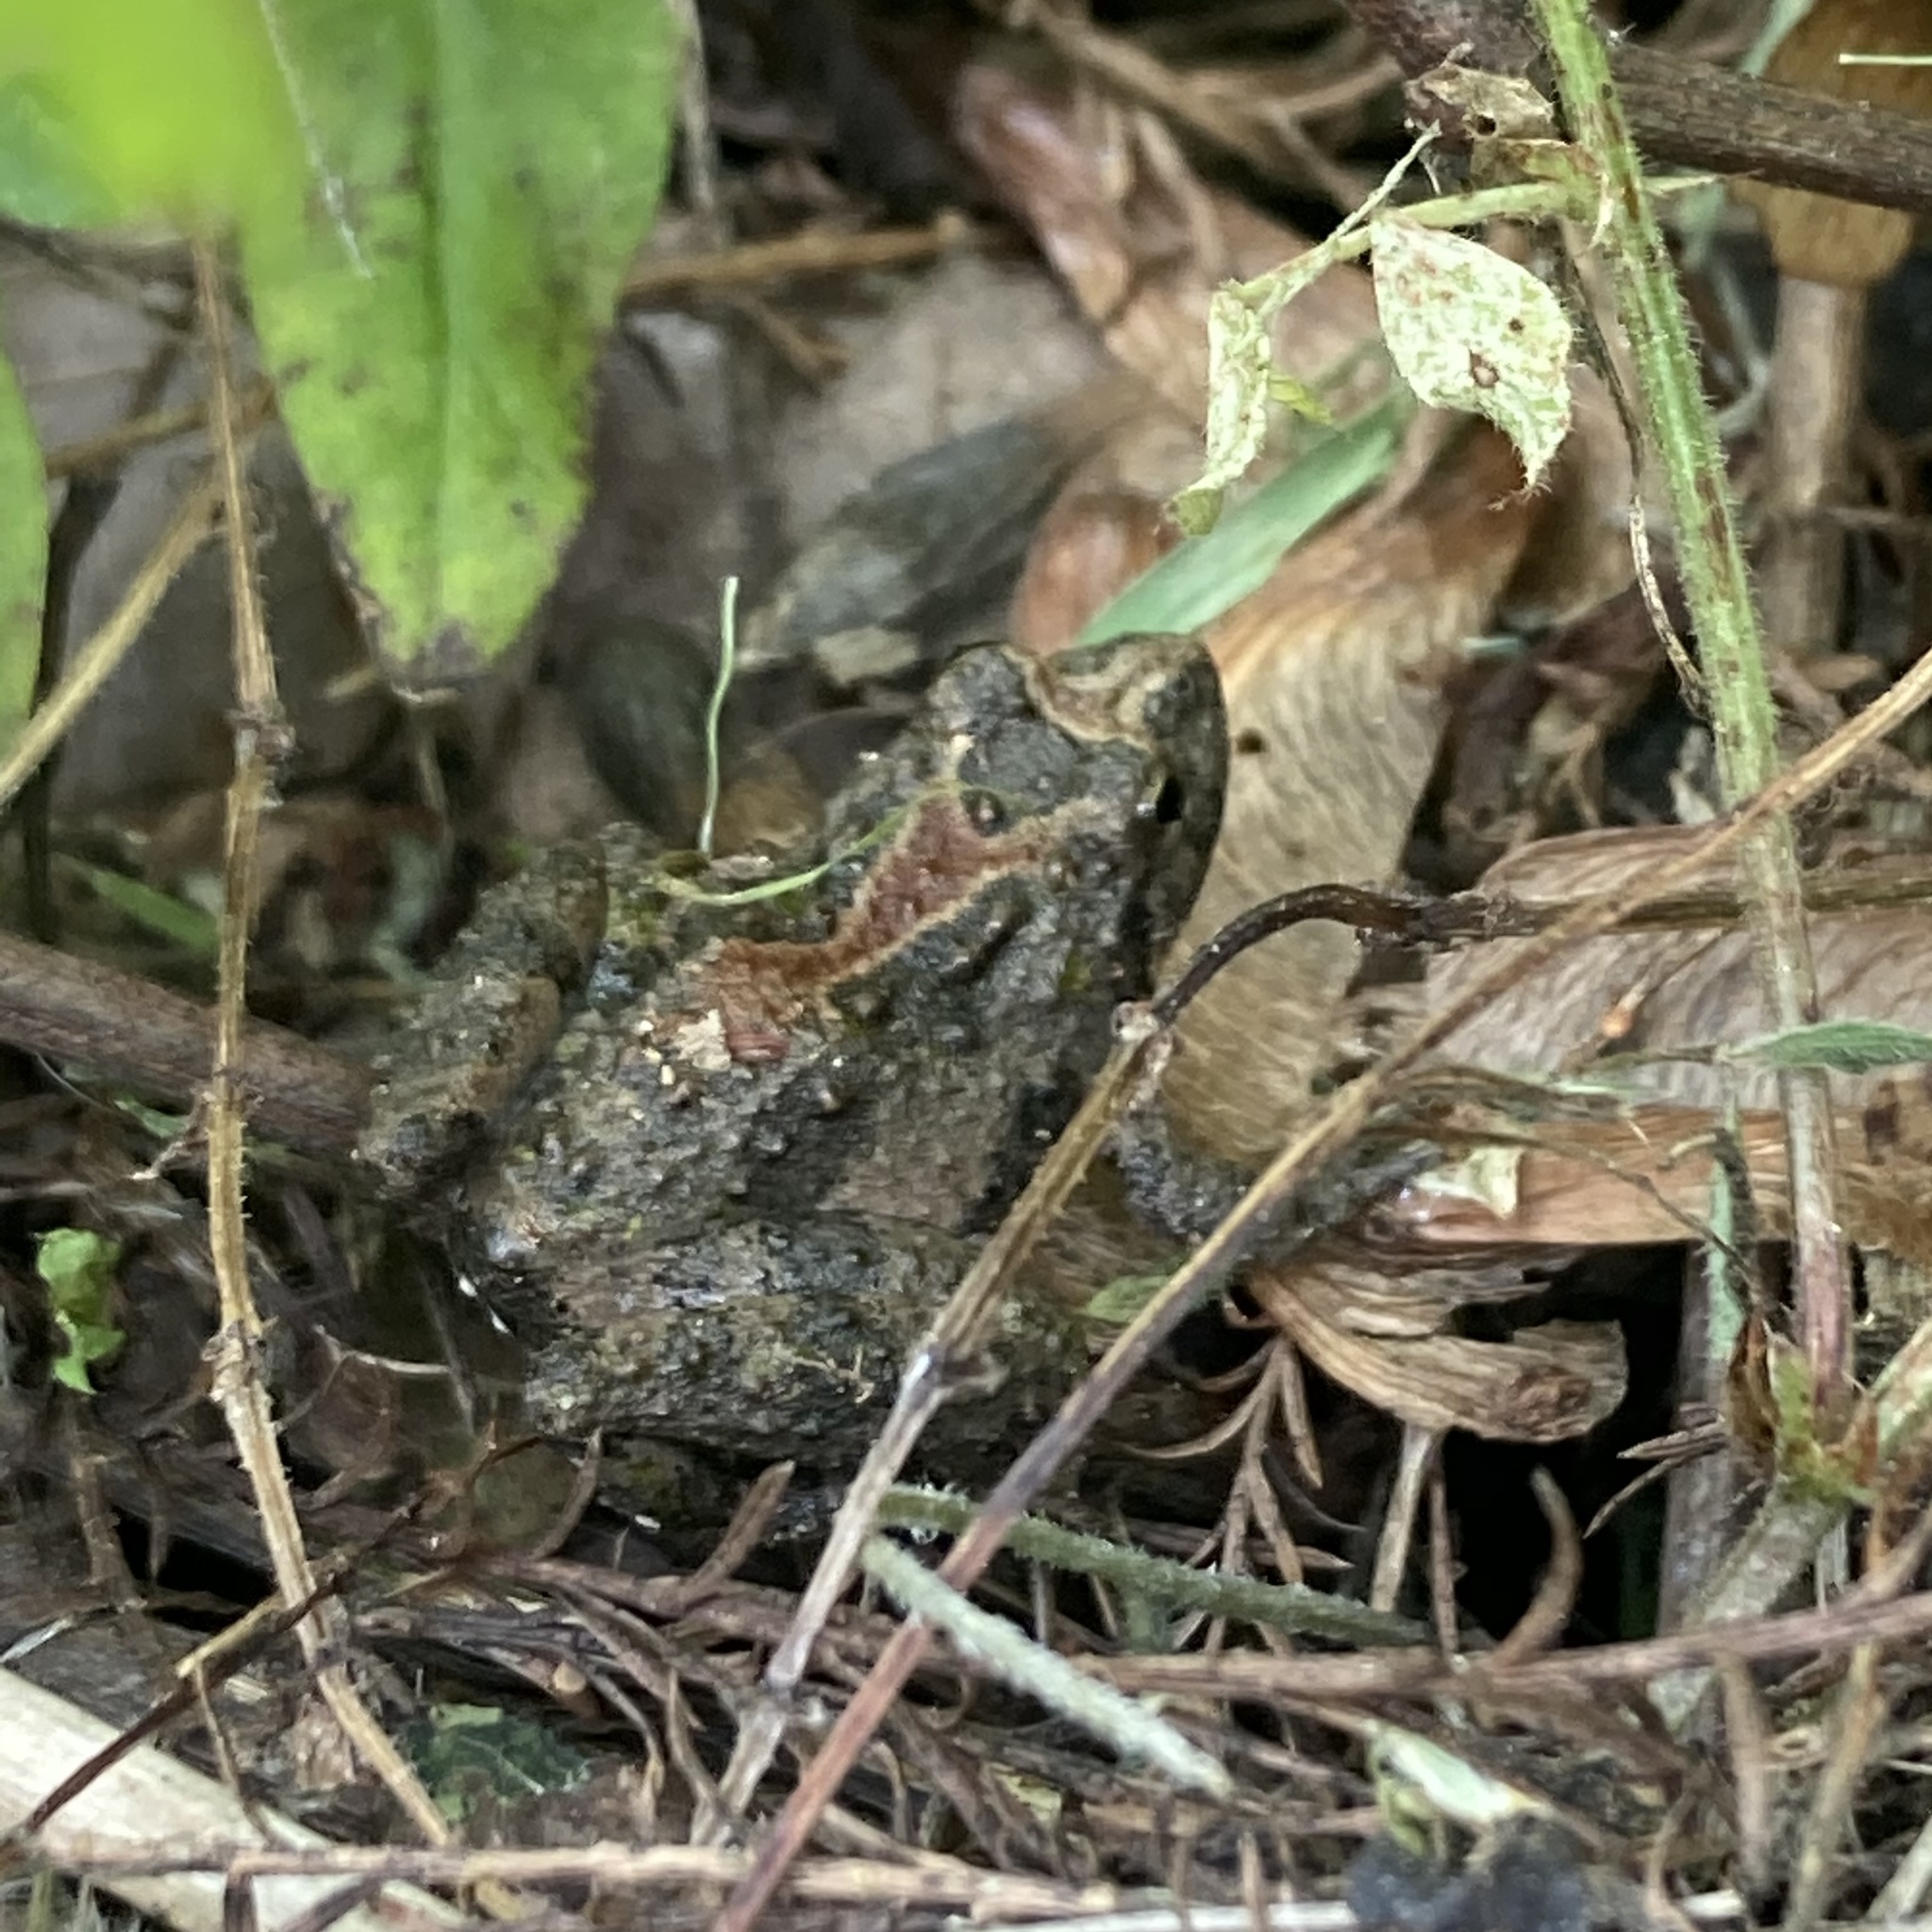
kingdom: Animalia
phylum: Chordata
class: Amphibia
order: Anura
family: Hylidae
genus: Acris
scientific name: Acris gryllus
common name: Southern cricket frog
